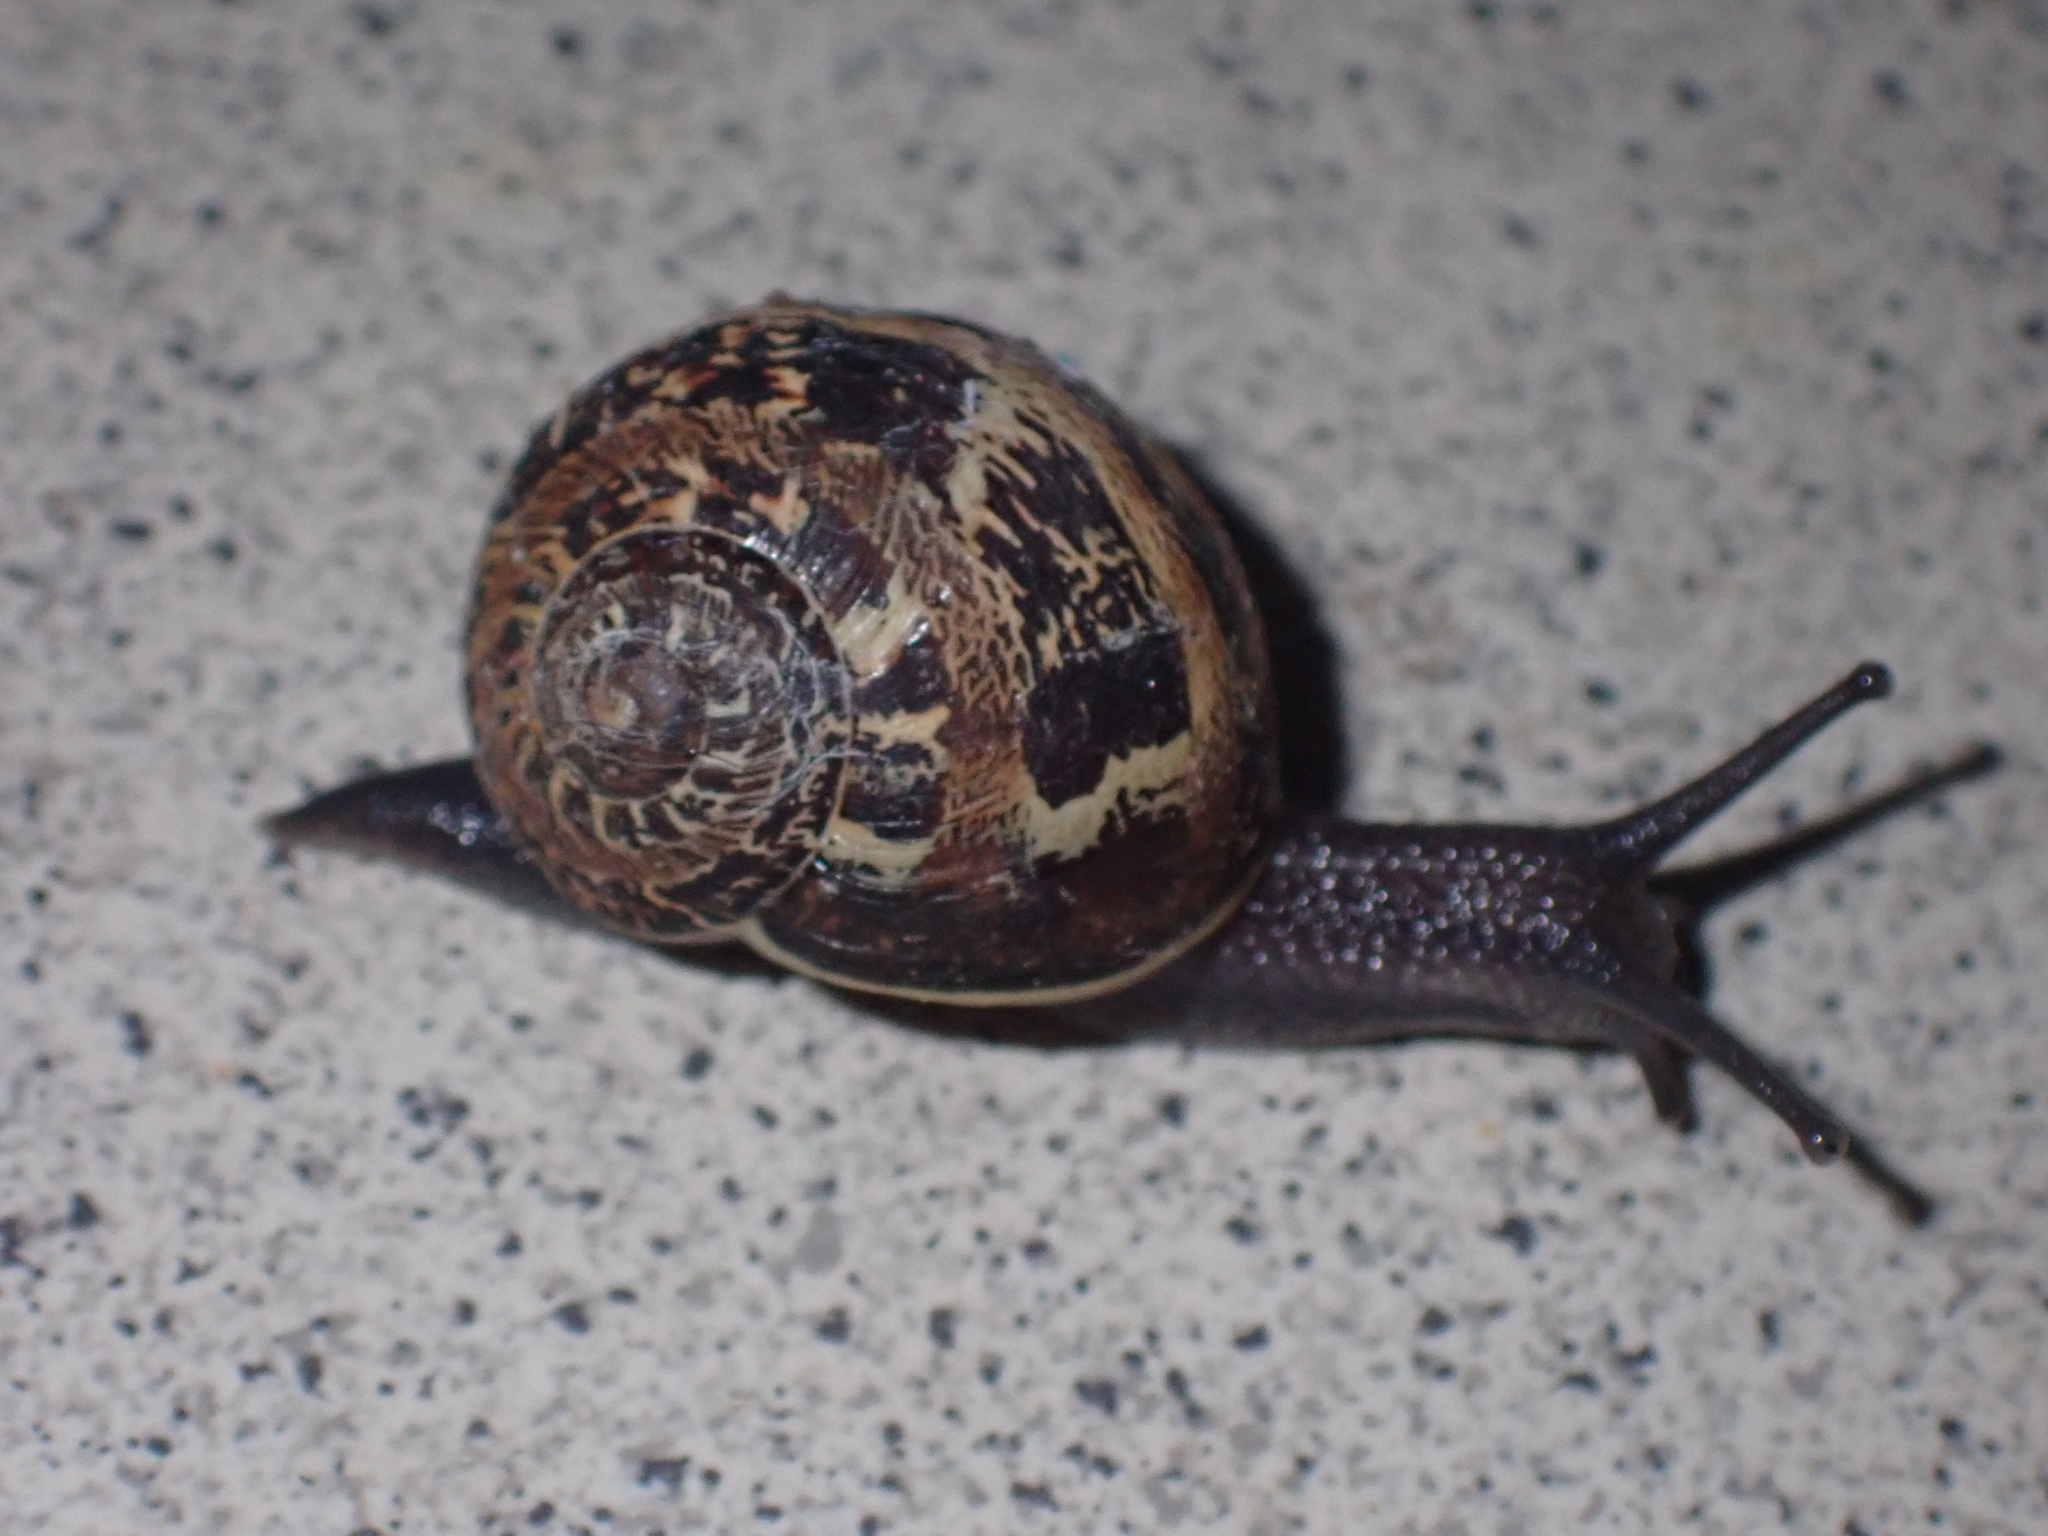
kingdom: Animalia
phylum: Mollusca
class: Gastropoda
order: Stylommatophora
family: Helicidae
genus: Cornu
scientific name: Cornu aspersum
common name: Brown garden snail
